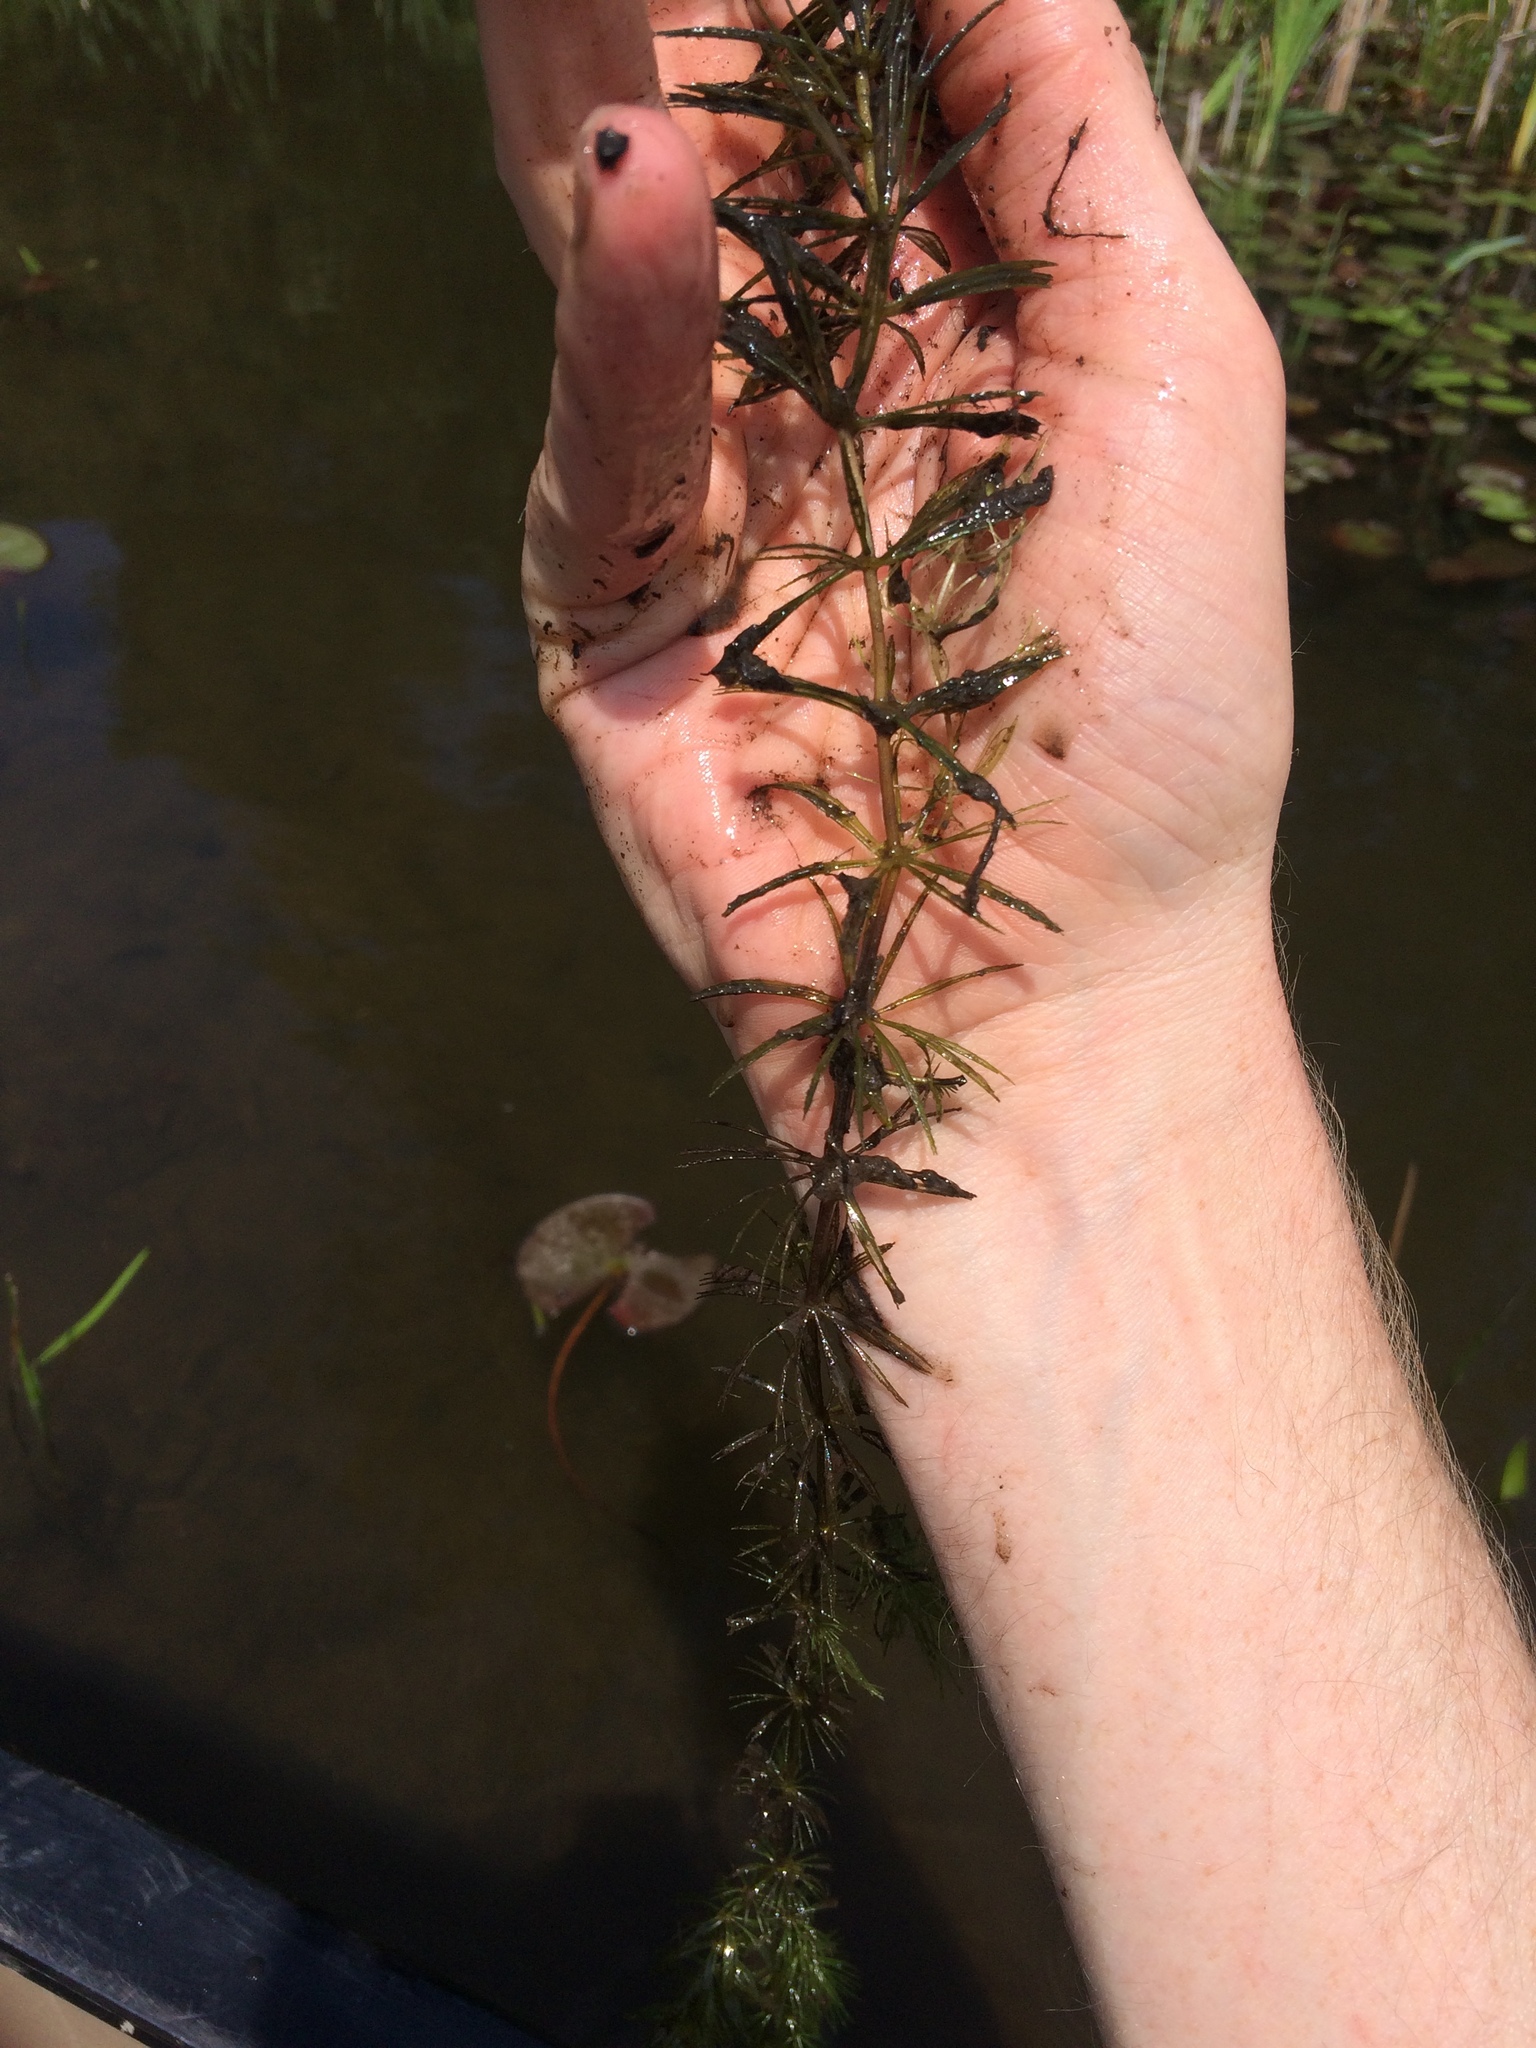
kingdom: Plantae
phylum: Tracheophyta
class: Magnoliopsida
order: Ceratophyllales
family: Ceratophyllaceae
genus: Ceratophyllum
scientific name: Ceratophyllum demersum
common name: Rigid hornwort
